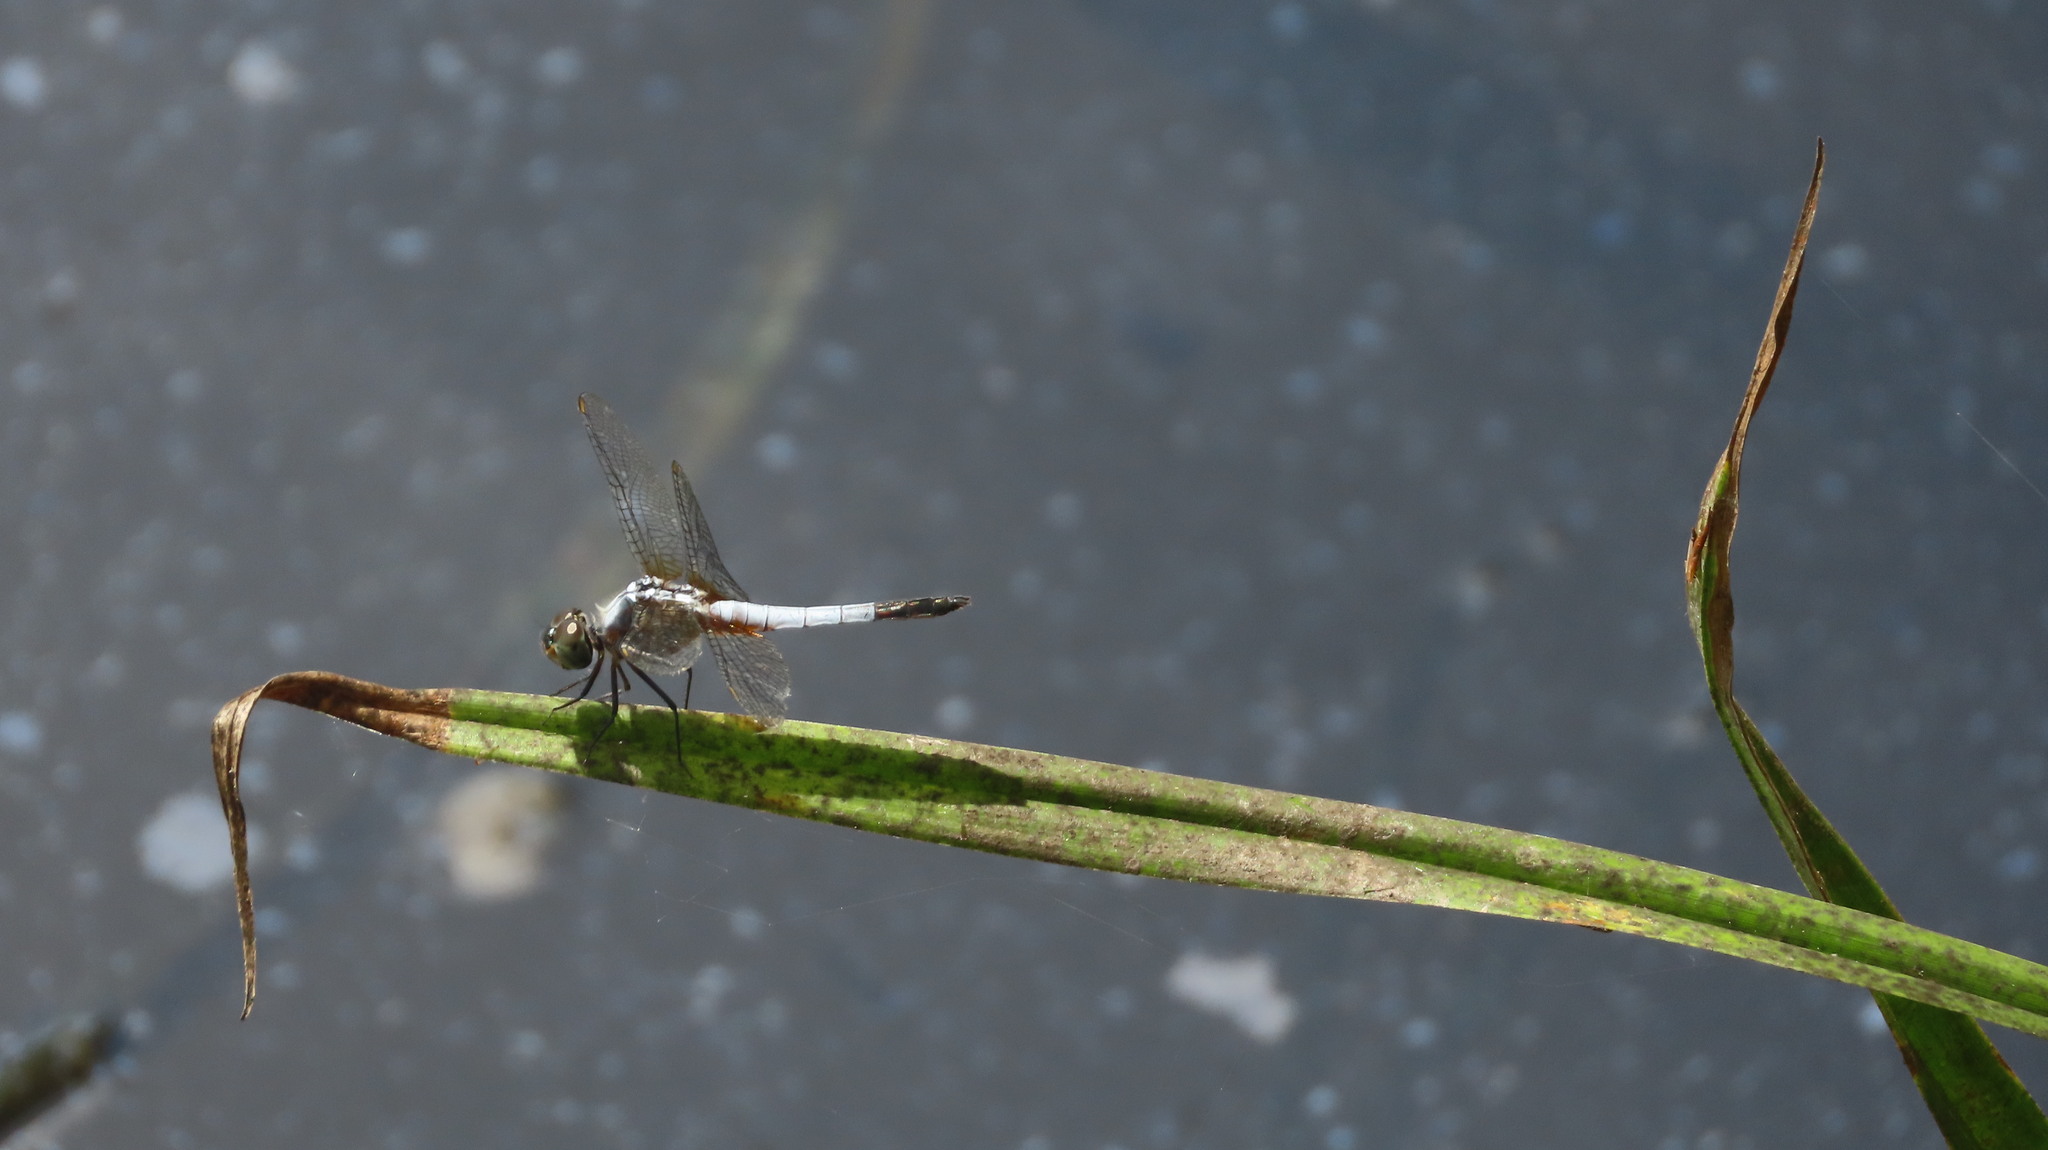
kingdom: Animalia
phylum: Arthropoda
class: Insecta
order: Odonata
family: Libellulidae
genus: Brachydiplax
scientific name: Brachydiplax chalybea
